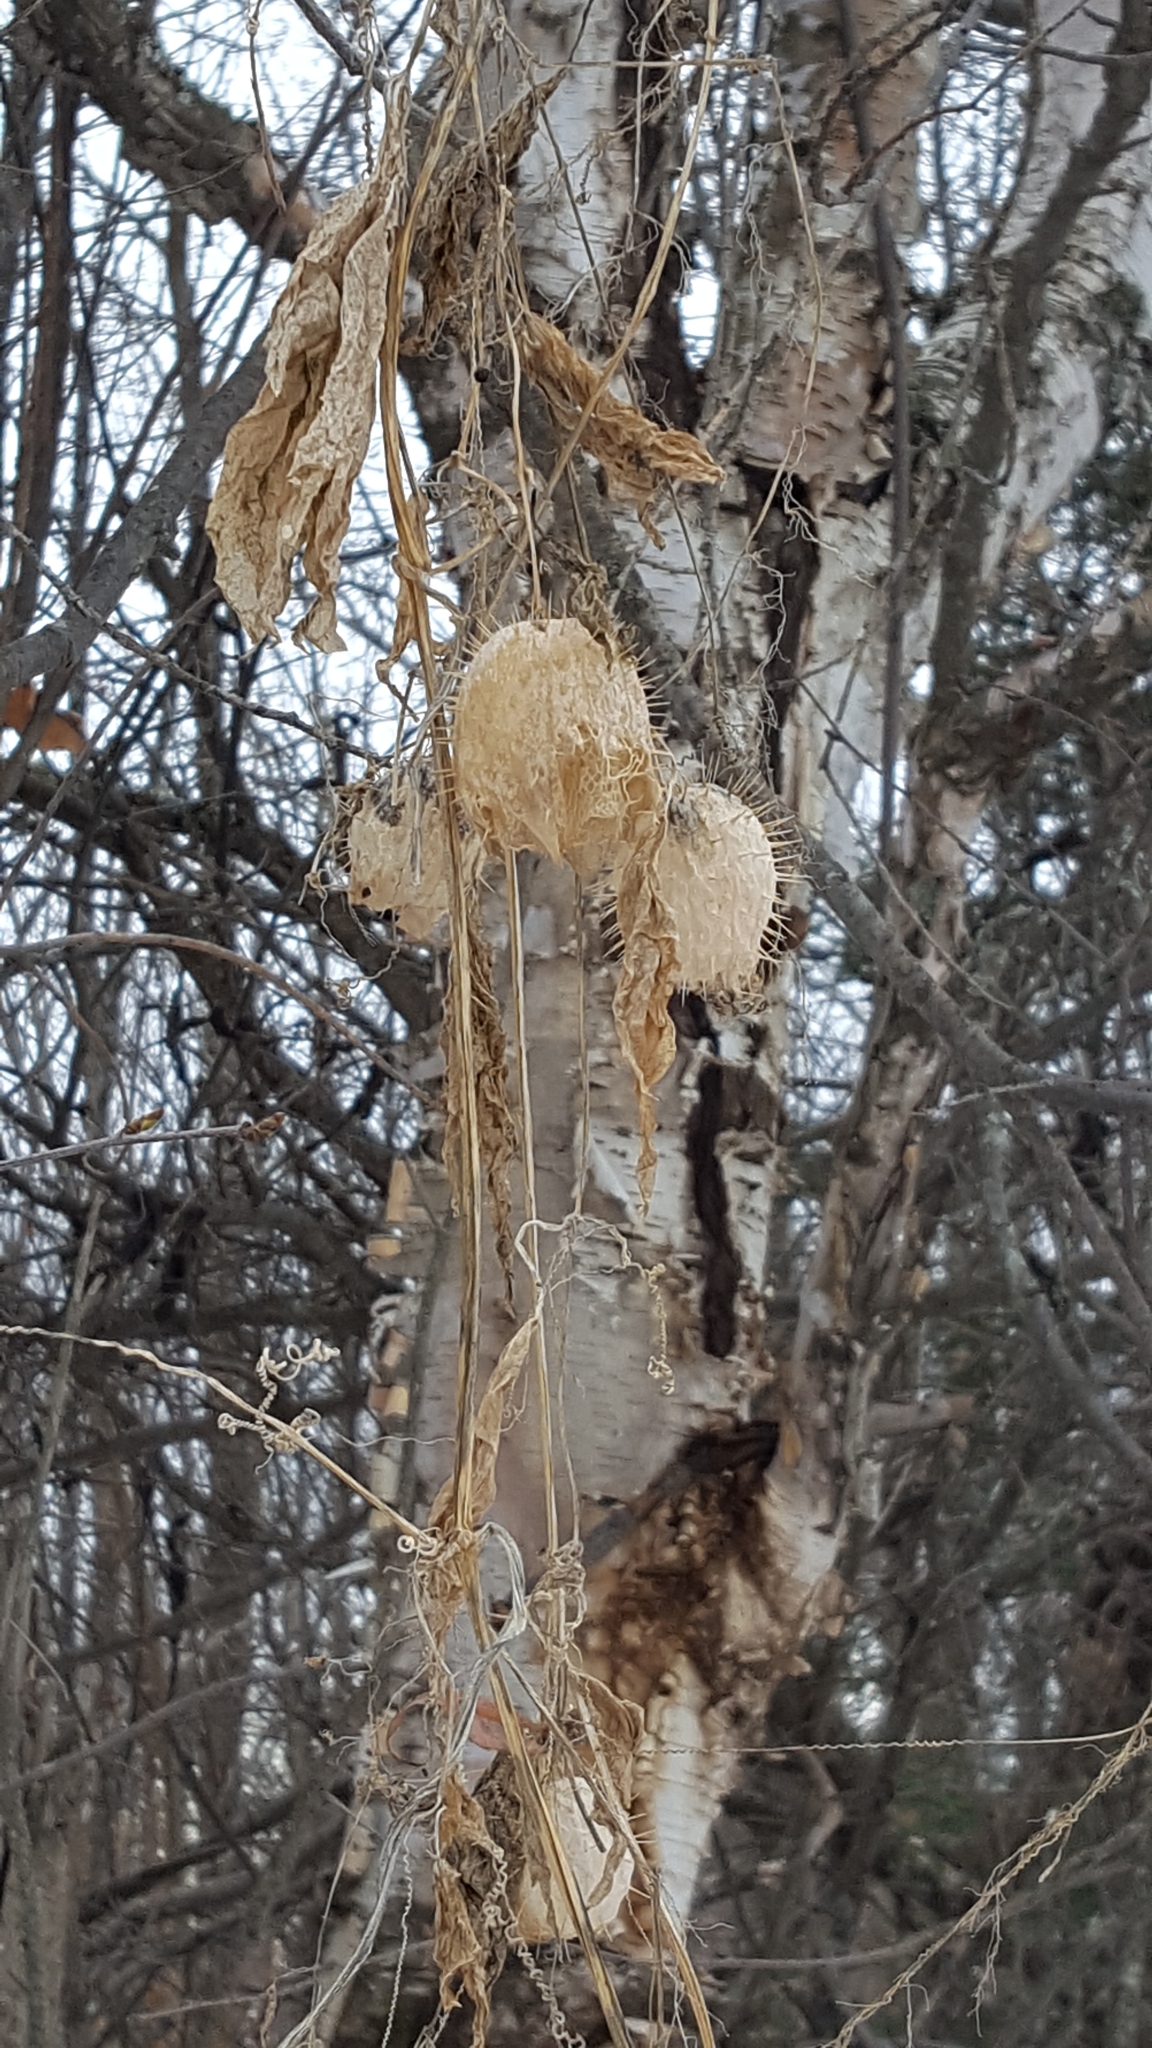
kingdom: Plantae
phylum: Tracheophyta
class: Magnoliopsida
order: Cucurbitales
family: Cucurbitaceae
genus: Echinocystis
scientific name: Echinocystis lobata
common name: Wild cucumber
